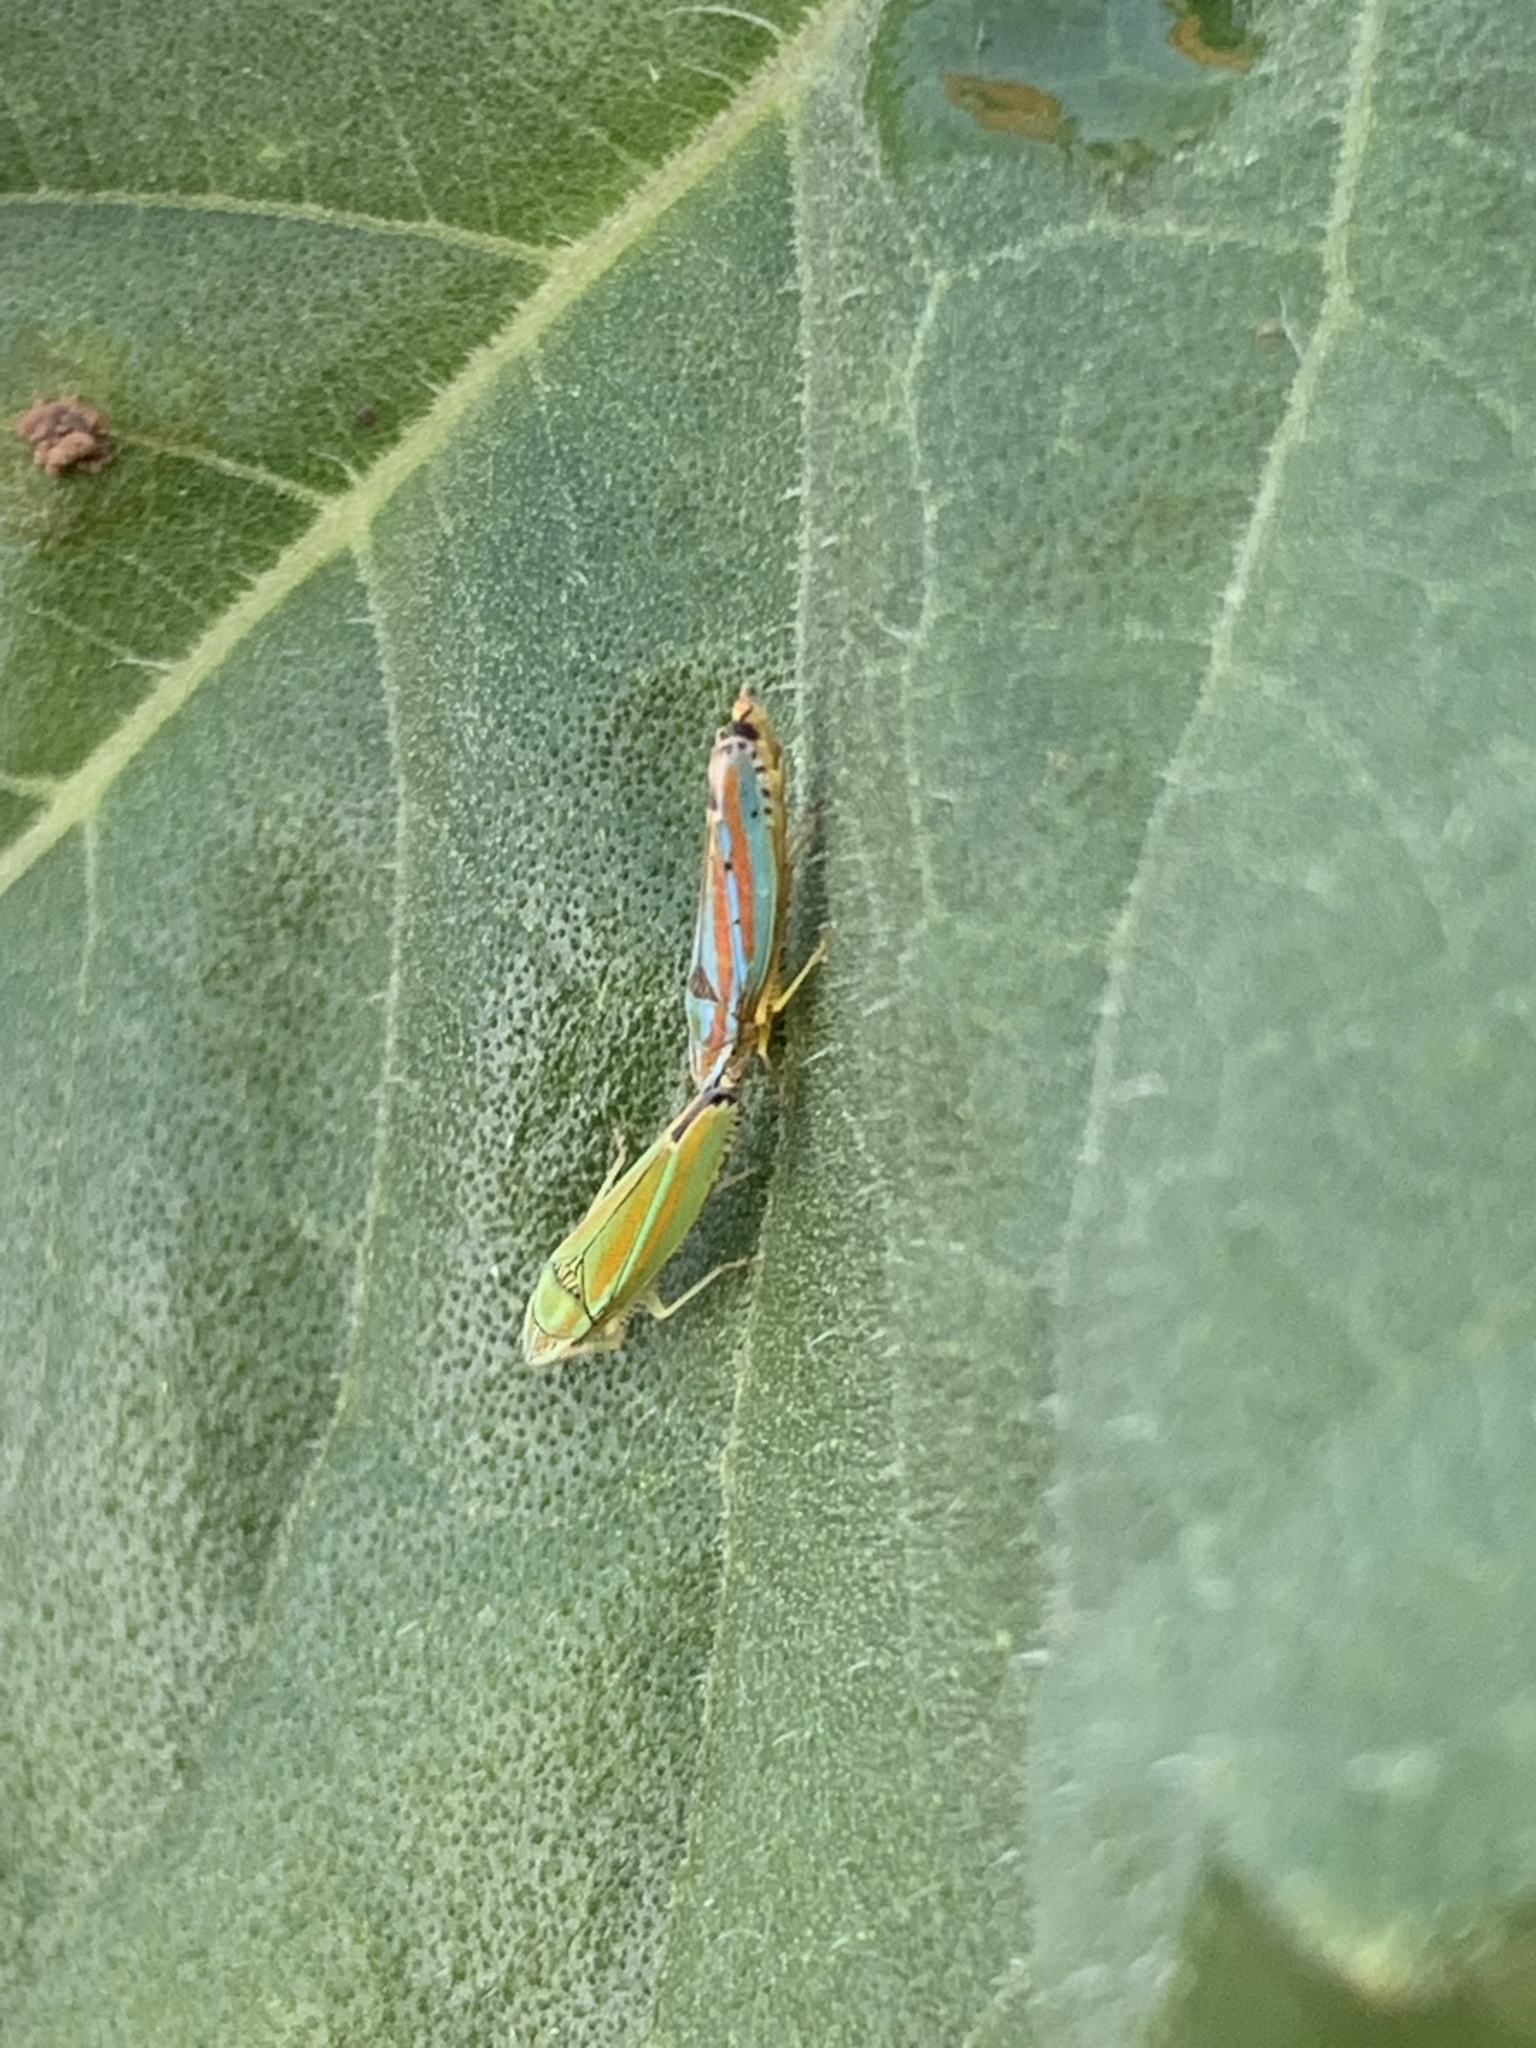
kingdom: Animalia
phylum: Arthropoda
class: Insecta
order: Hemiptera
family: Cicadellidae
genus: Graphocephala
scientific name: Graphocephala versuta
